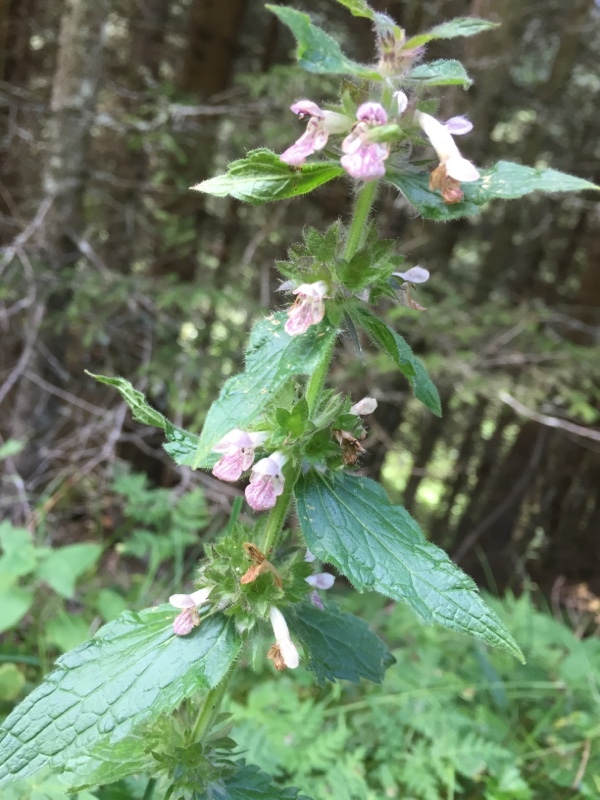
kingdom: Plantae
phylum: Tracheophyta
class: Magnoliopsida
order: Lamiales
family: Lamiaceae
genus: Stachys
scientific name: Stachys alpina
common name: Limestone woundwort
